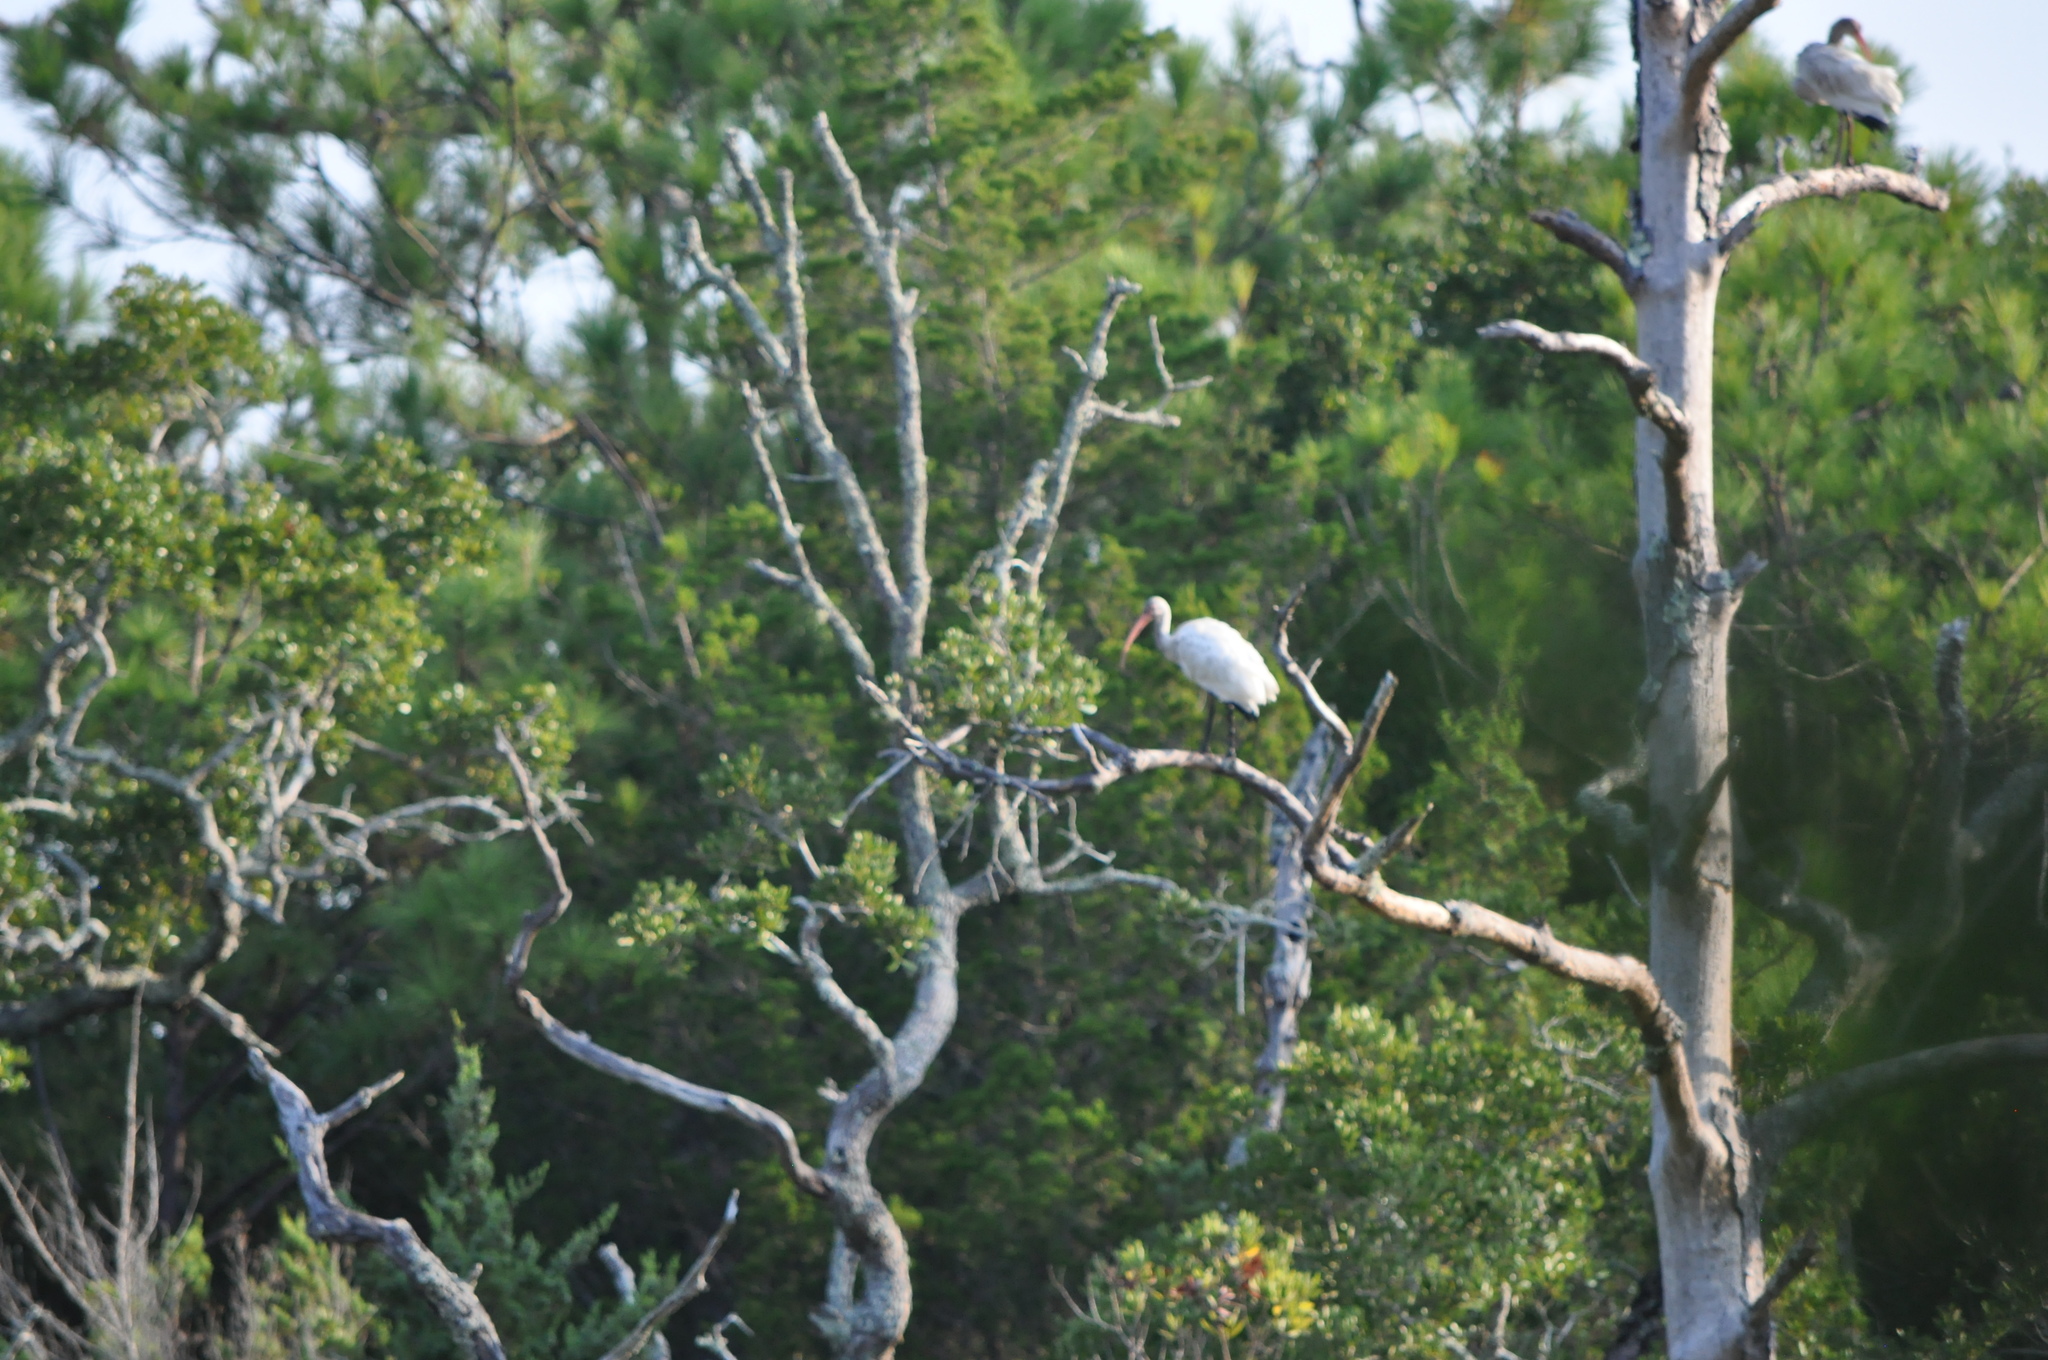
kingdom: Animalia
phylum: Chordata
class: Aves
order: Pelecaniformes
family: Threskiornithidae
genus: Eudocimus
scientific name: Eudocimus albus
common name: White ibis
